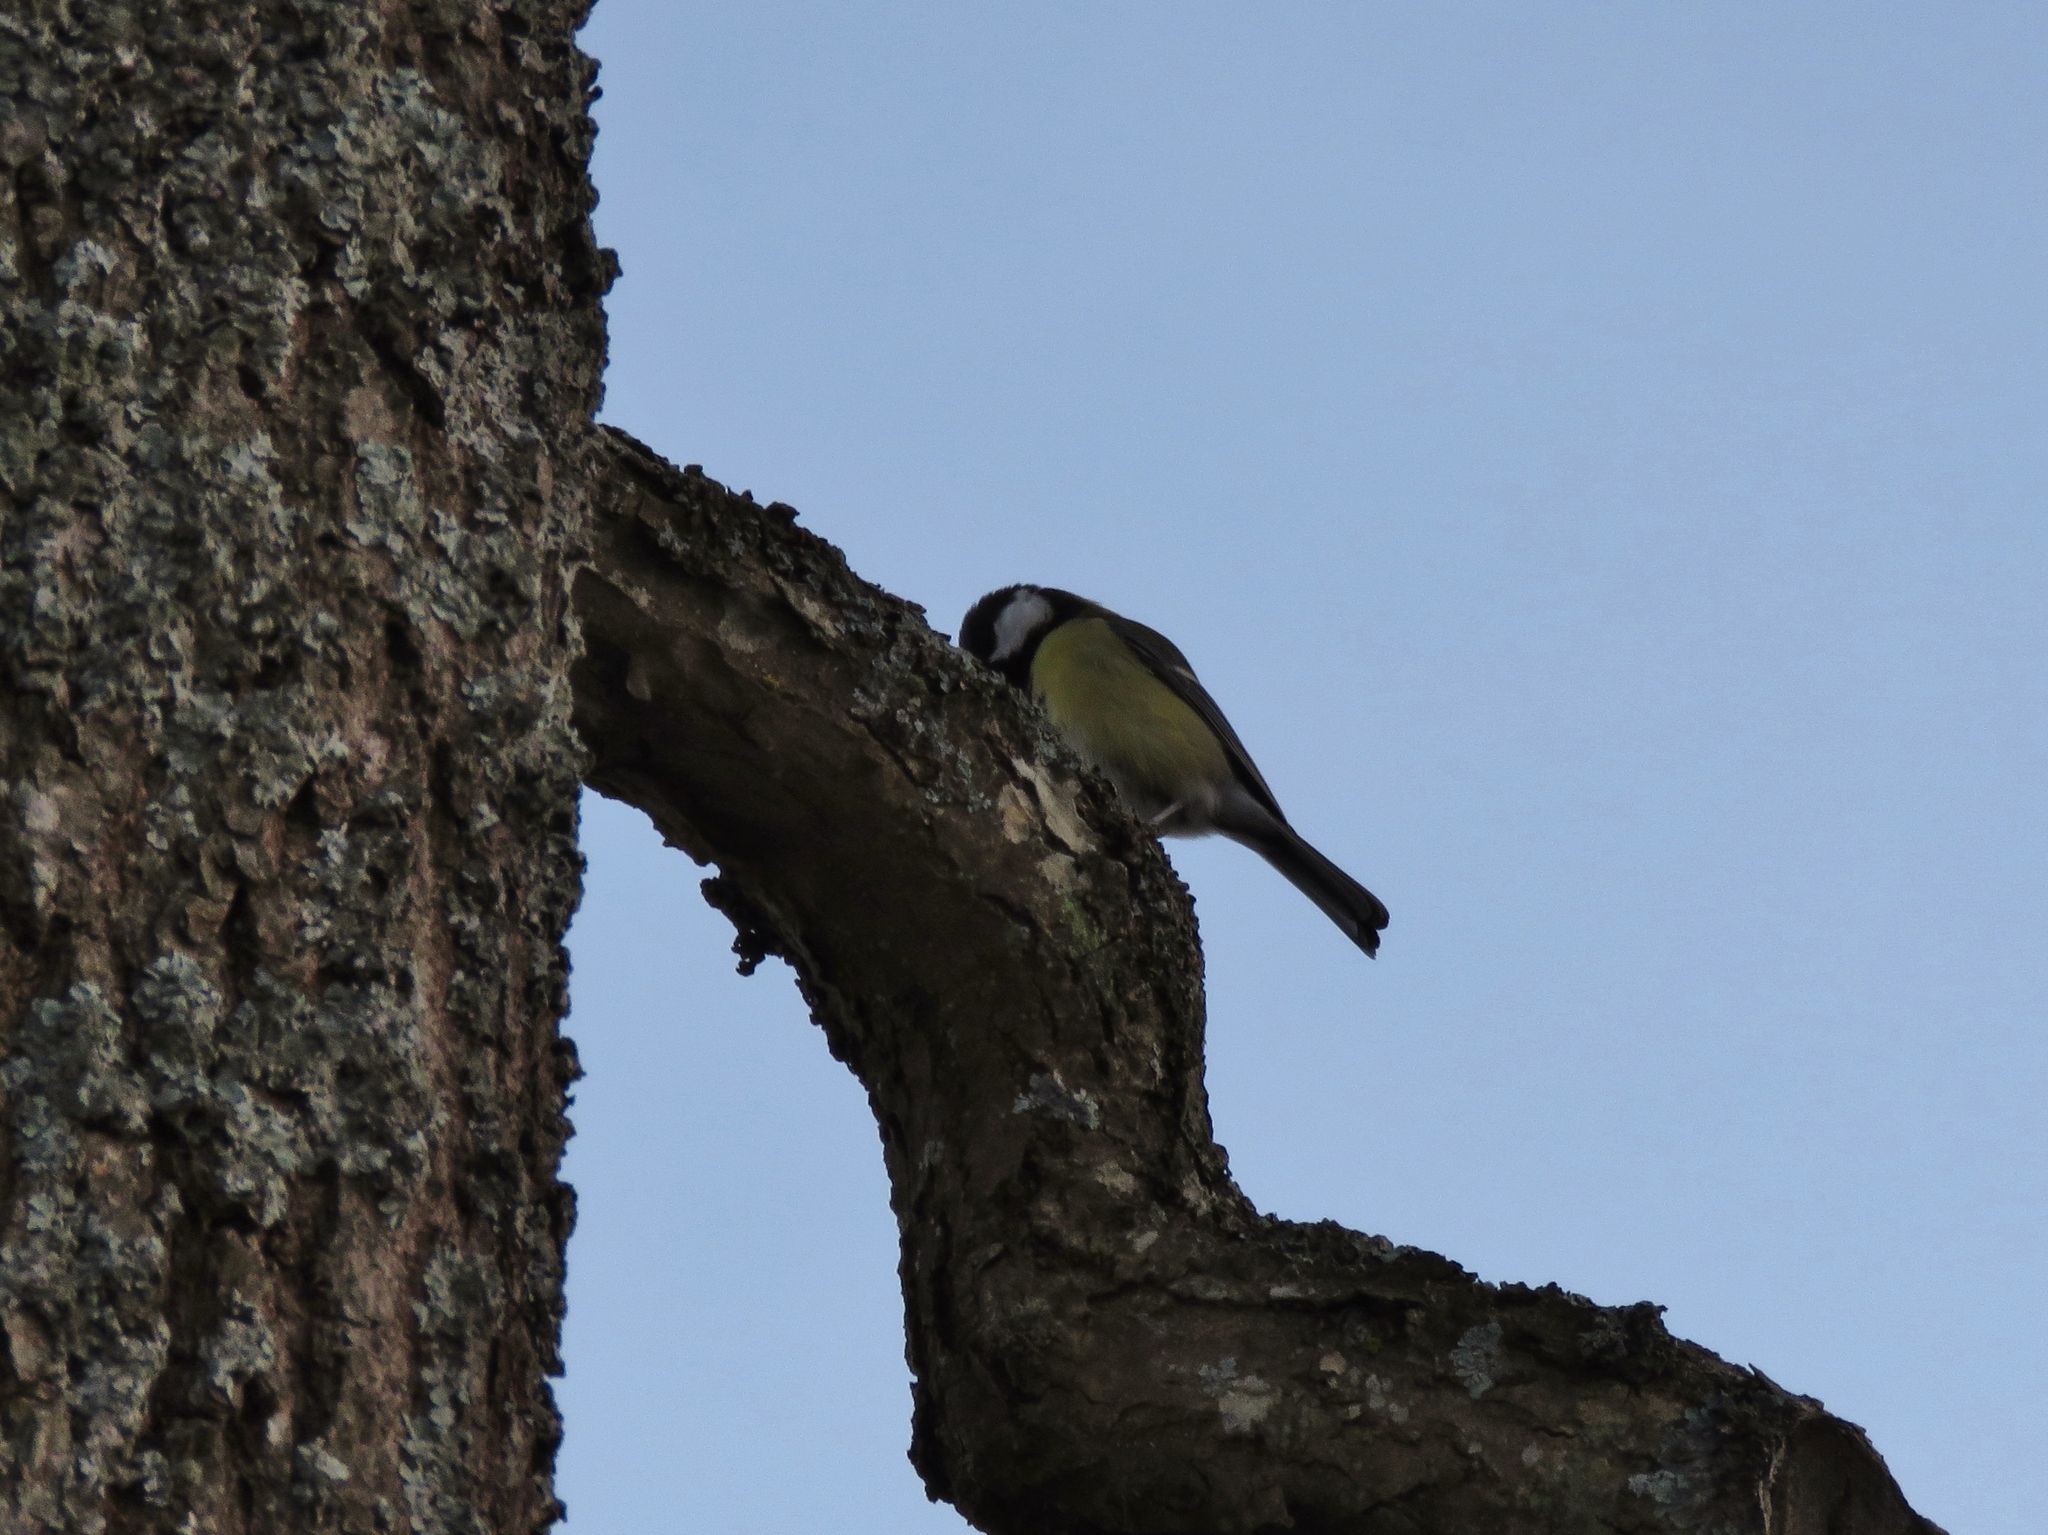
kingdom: Animalia
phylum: Chordata
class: Aves
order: Passeriformes
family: Paridae
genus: Parus
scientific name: Parus major
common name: Great tit
